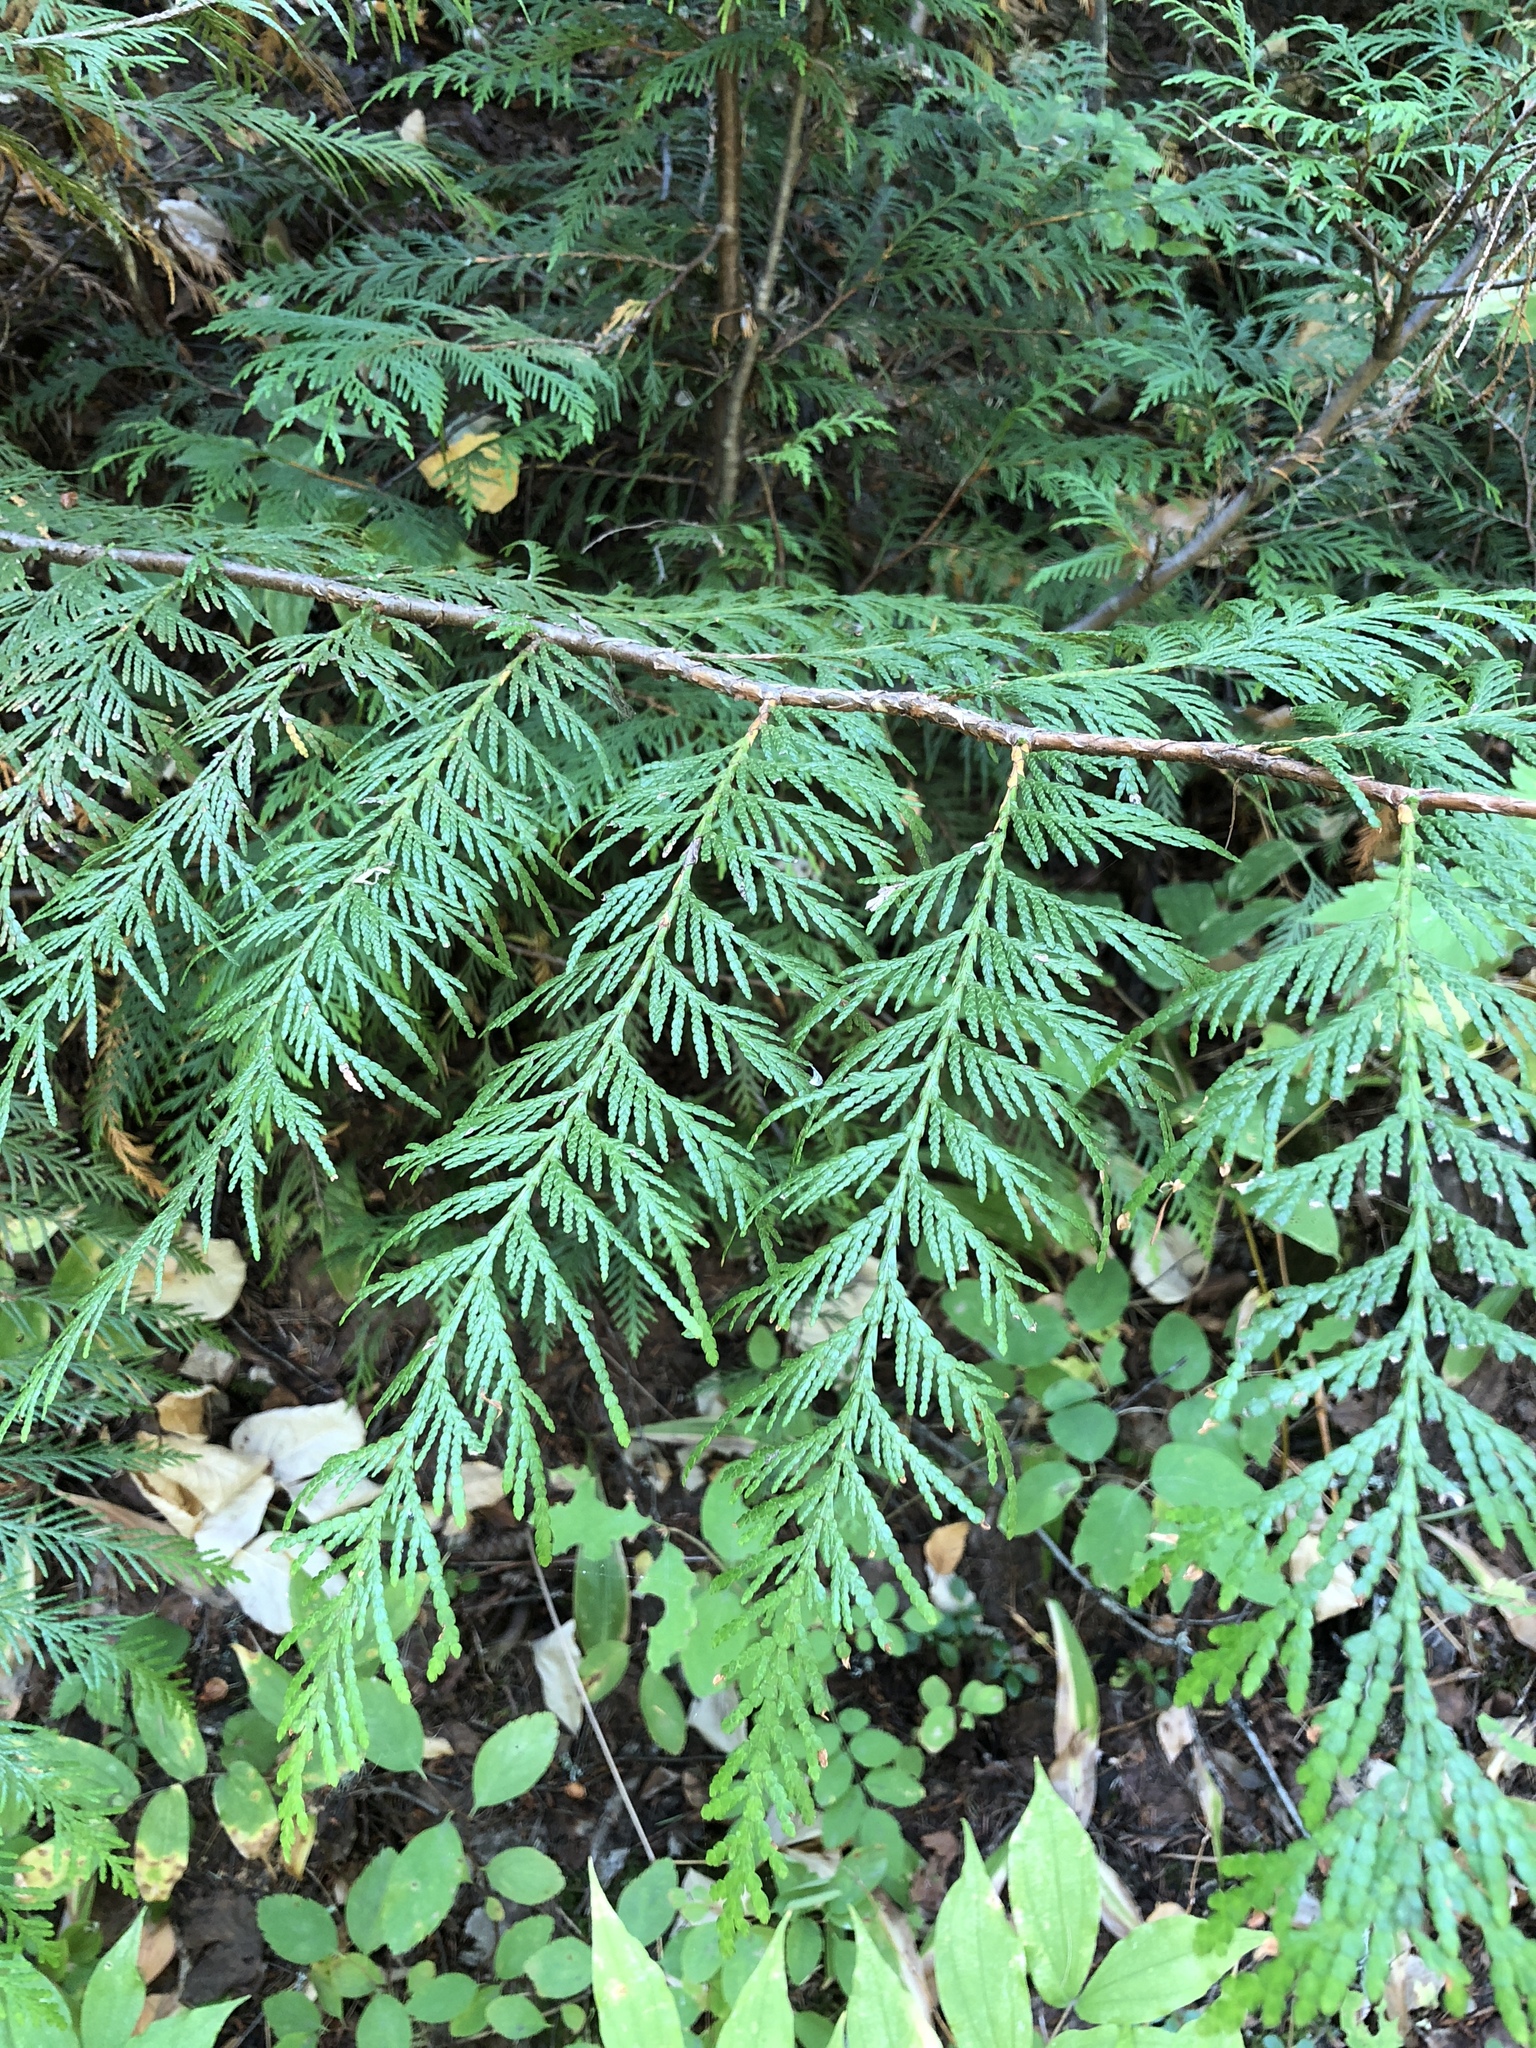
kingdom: Plantae
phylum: Tracheophyta
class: Pinopsida
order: Pinales
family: Cupressaceae
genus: Thuja
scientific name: Thuja plicata
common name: Western red-cedar
